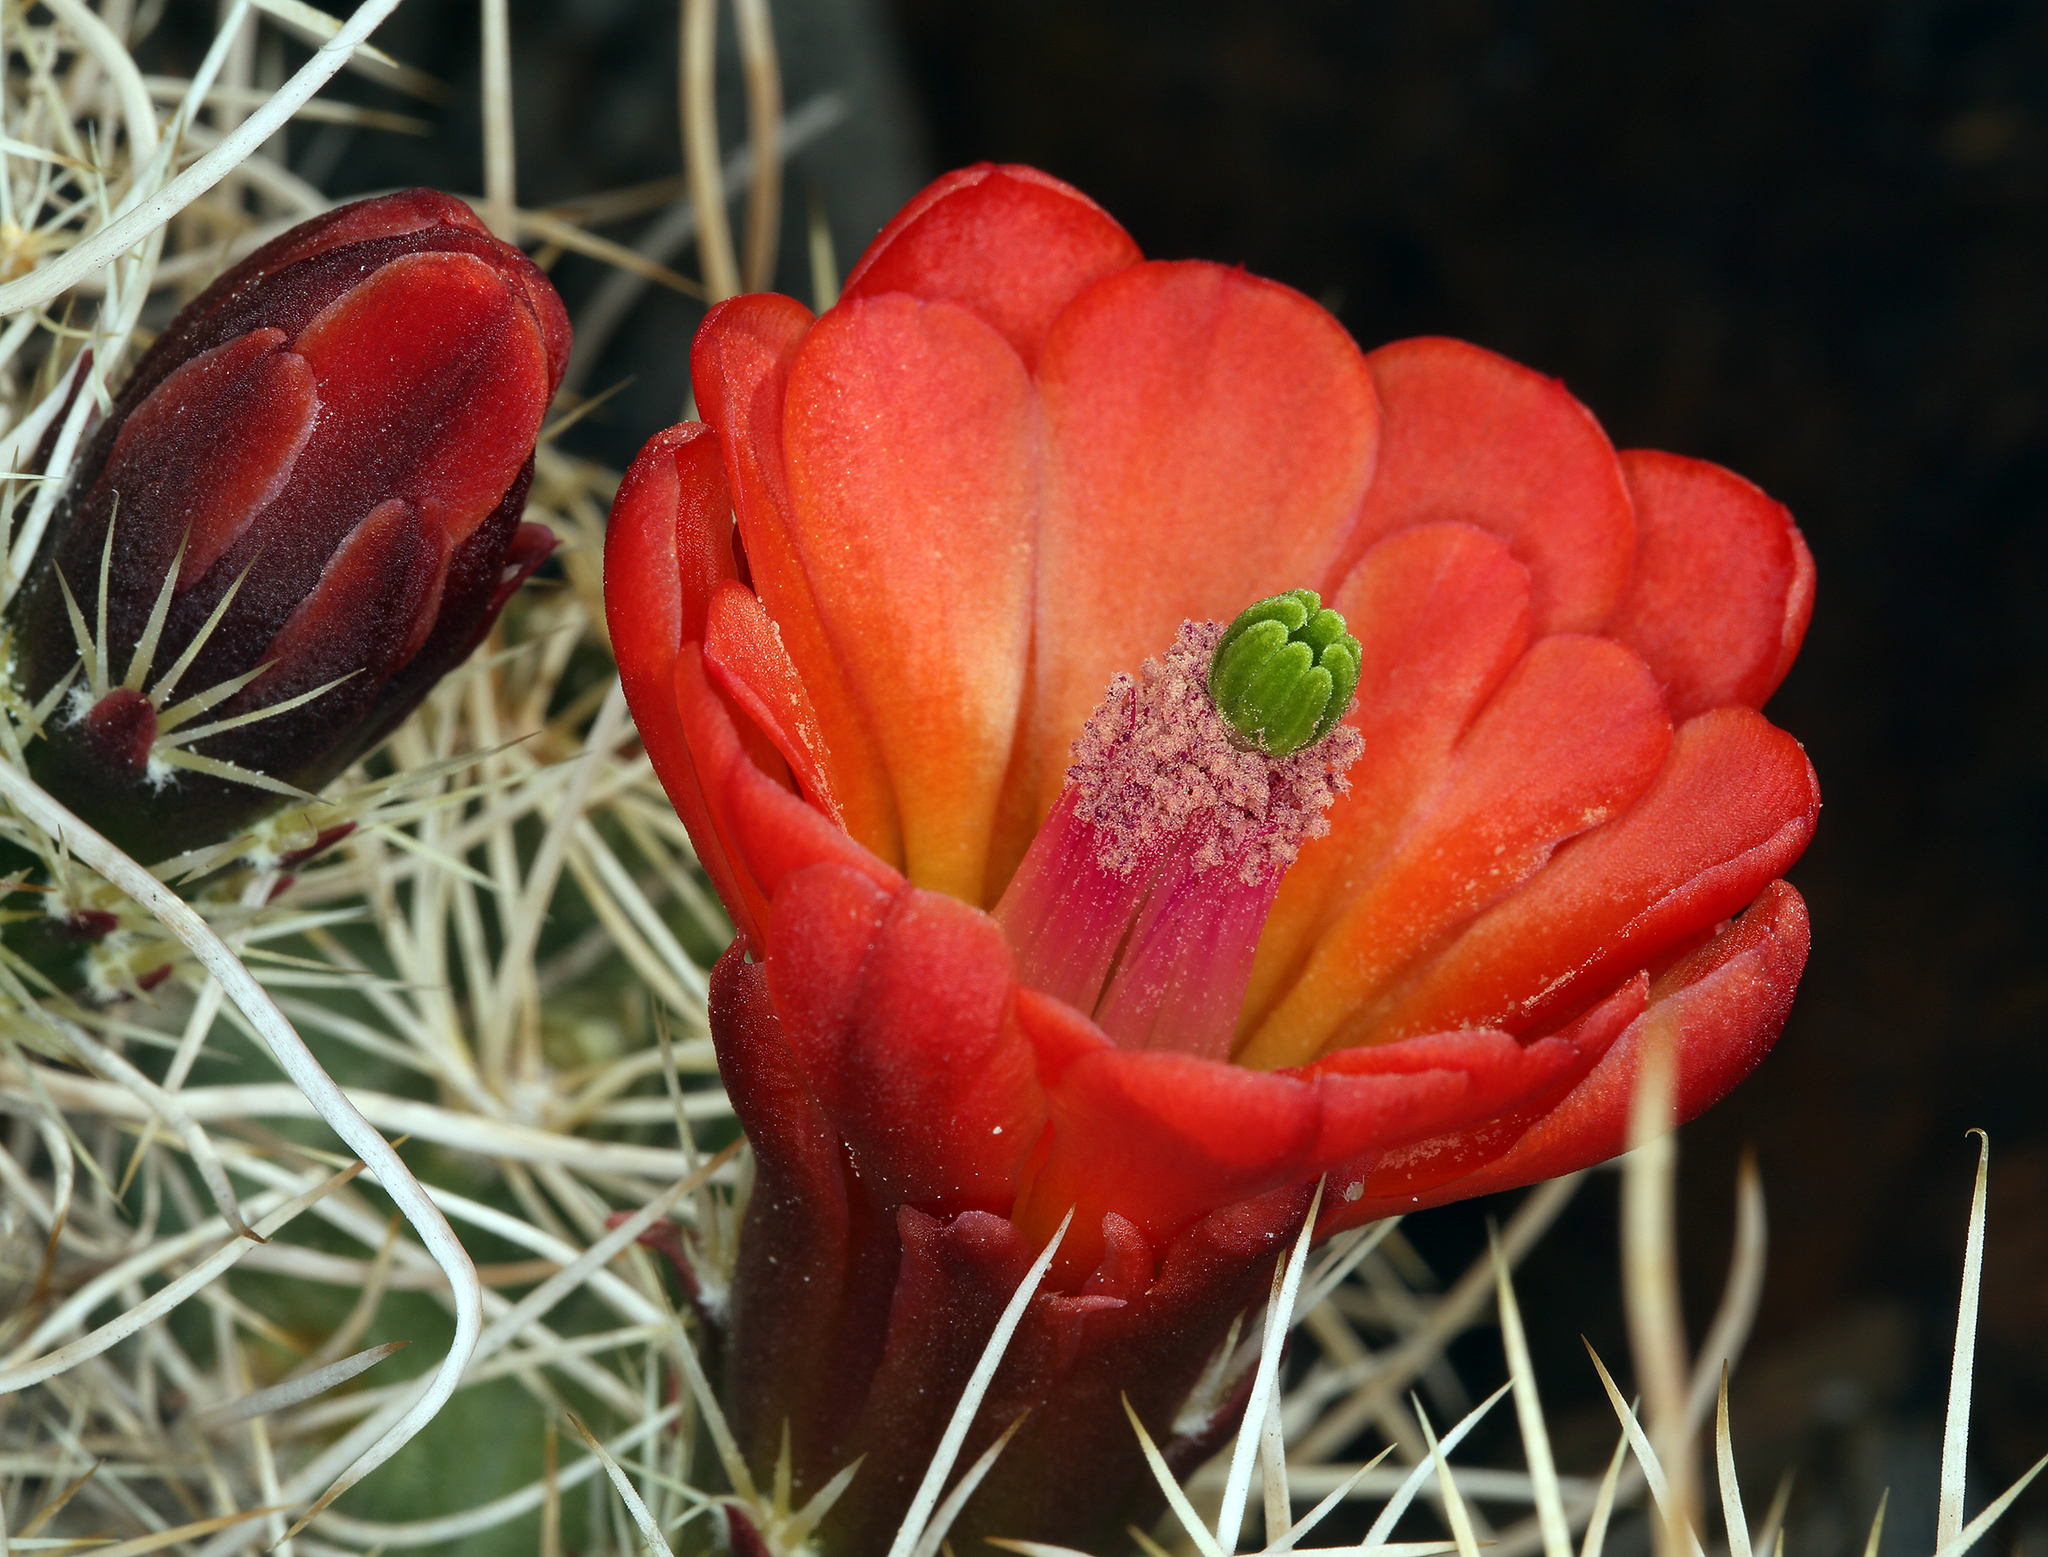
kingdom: Plantae
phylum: Tracheophyta
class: Magnoliopsida
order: Caryophyllales
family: Cactaceae
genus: Echinocereus
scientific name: Echinocereus triglochidiatus
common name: Claretcup hedgehog
